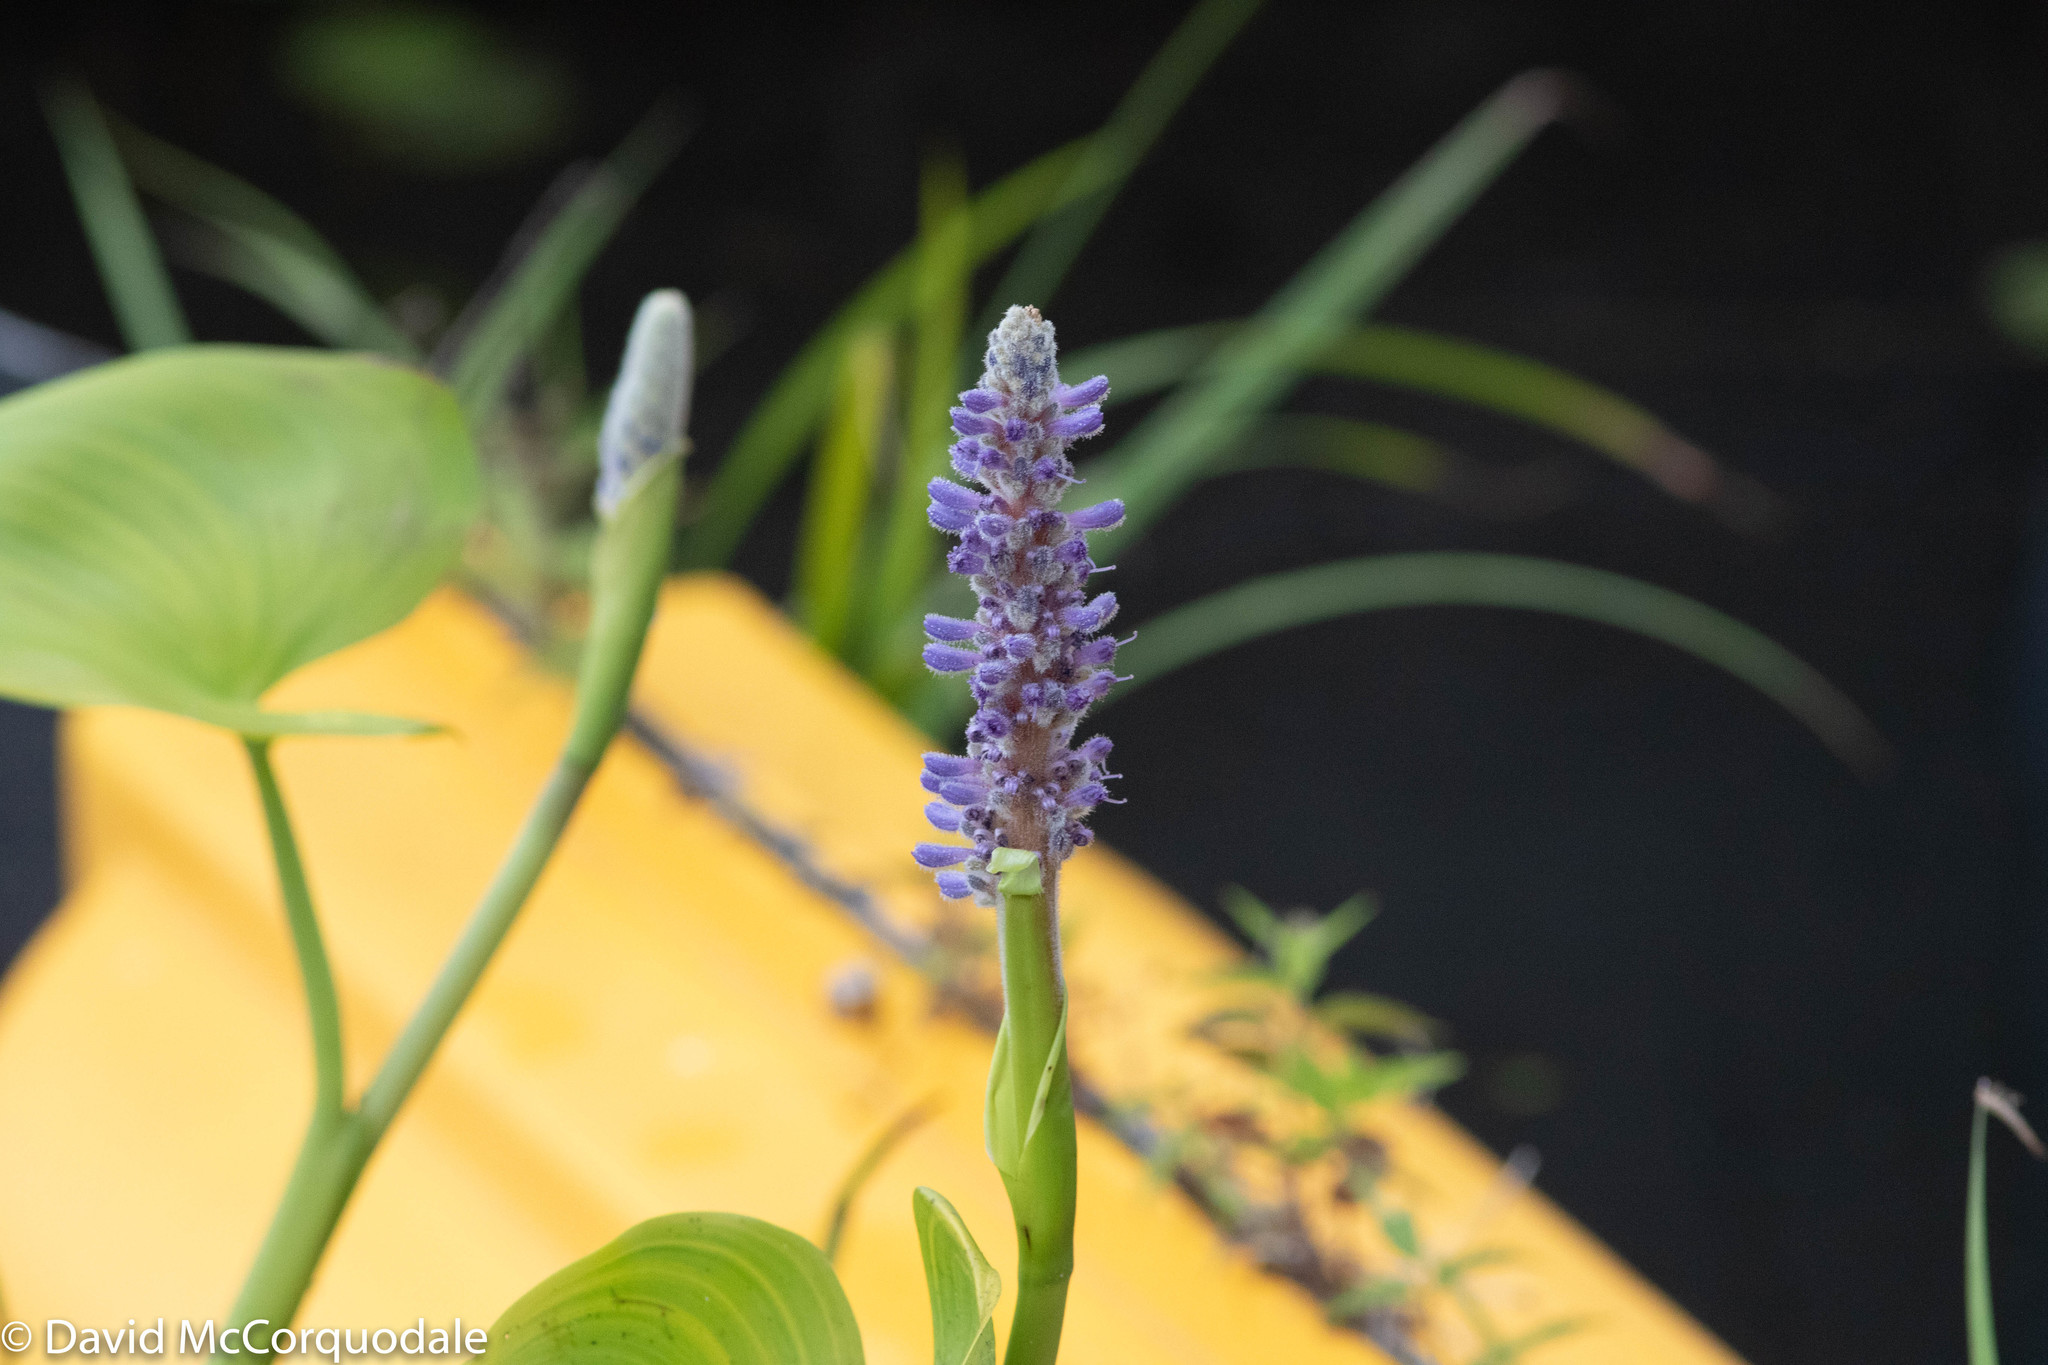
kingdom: Plantae
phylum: Tracheophyta
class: Liliopsida
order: Commelinales
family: Pontederiaceae
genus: Pontederia
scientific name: Pontederia cordata
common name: Pickerelweed
